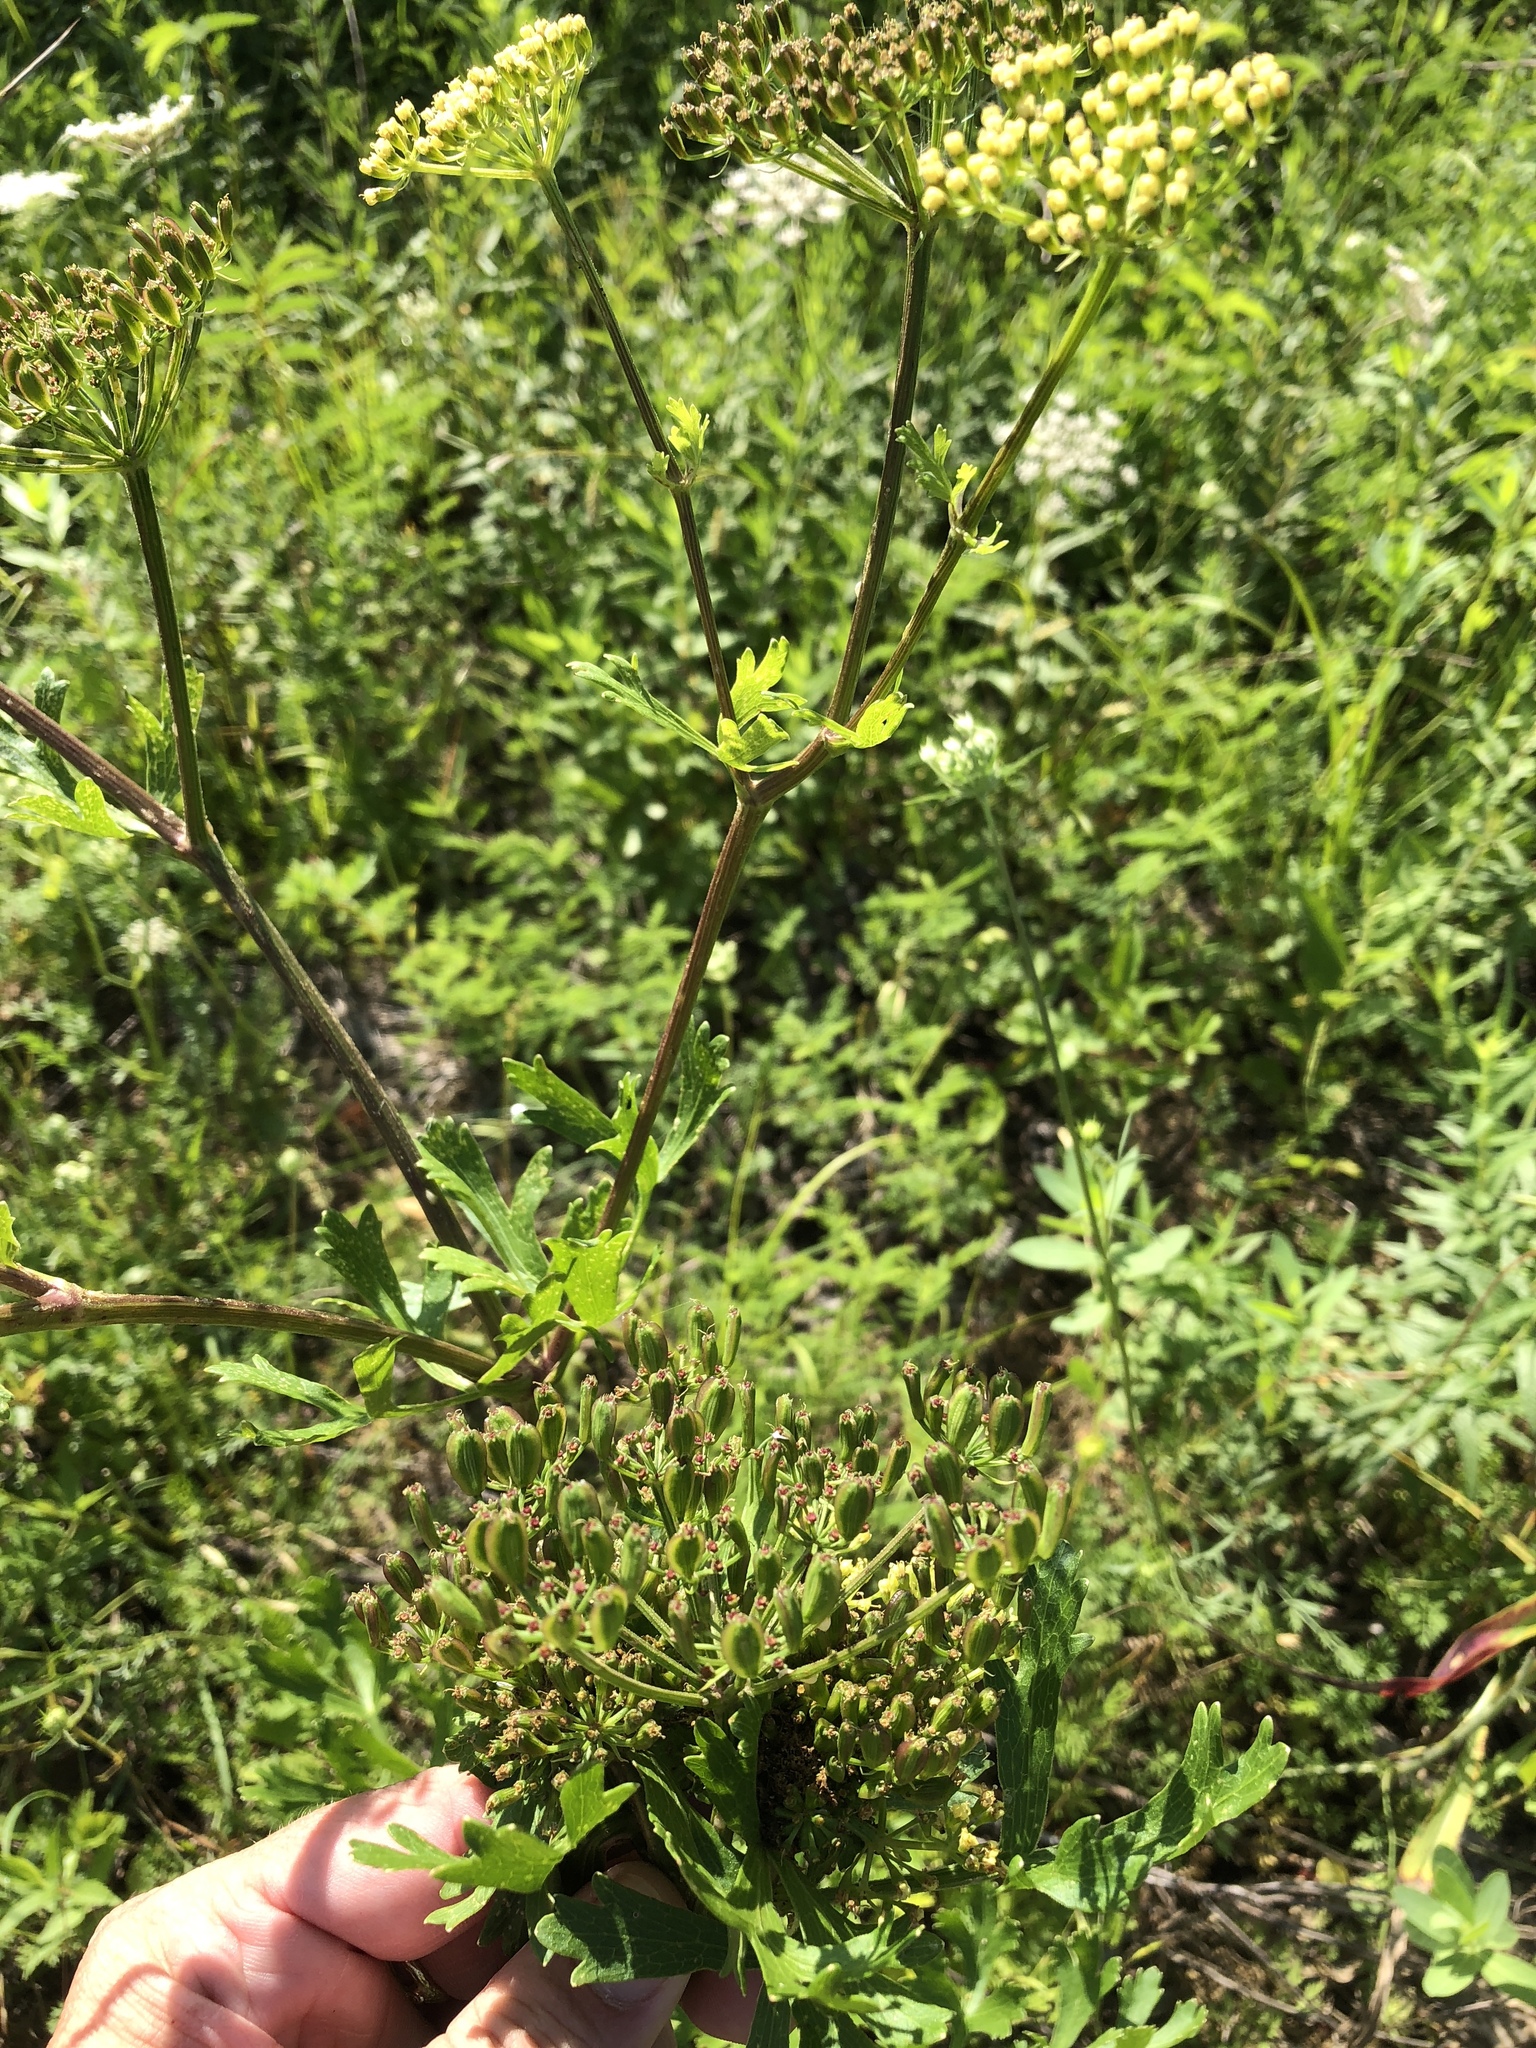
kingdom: Plantae
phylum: Tracheophyta
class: Magnoliopsida
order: Apiales
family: Apiaceae
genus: Polytaenia
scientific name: Polytaenia texana
